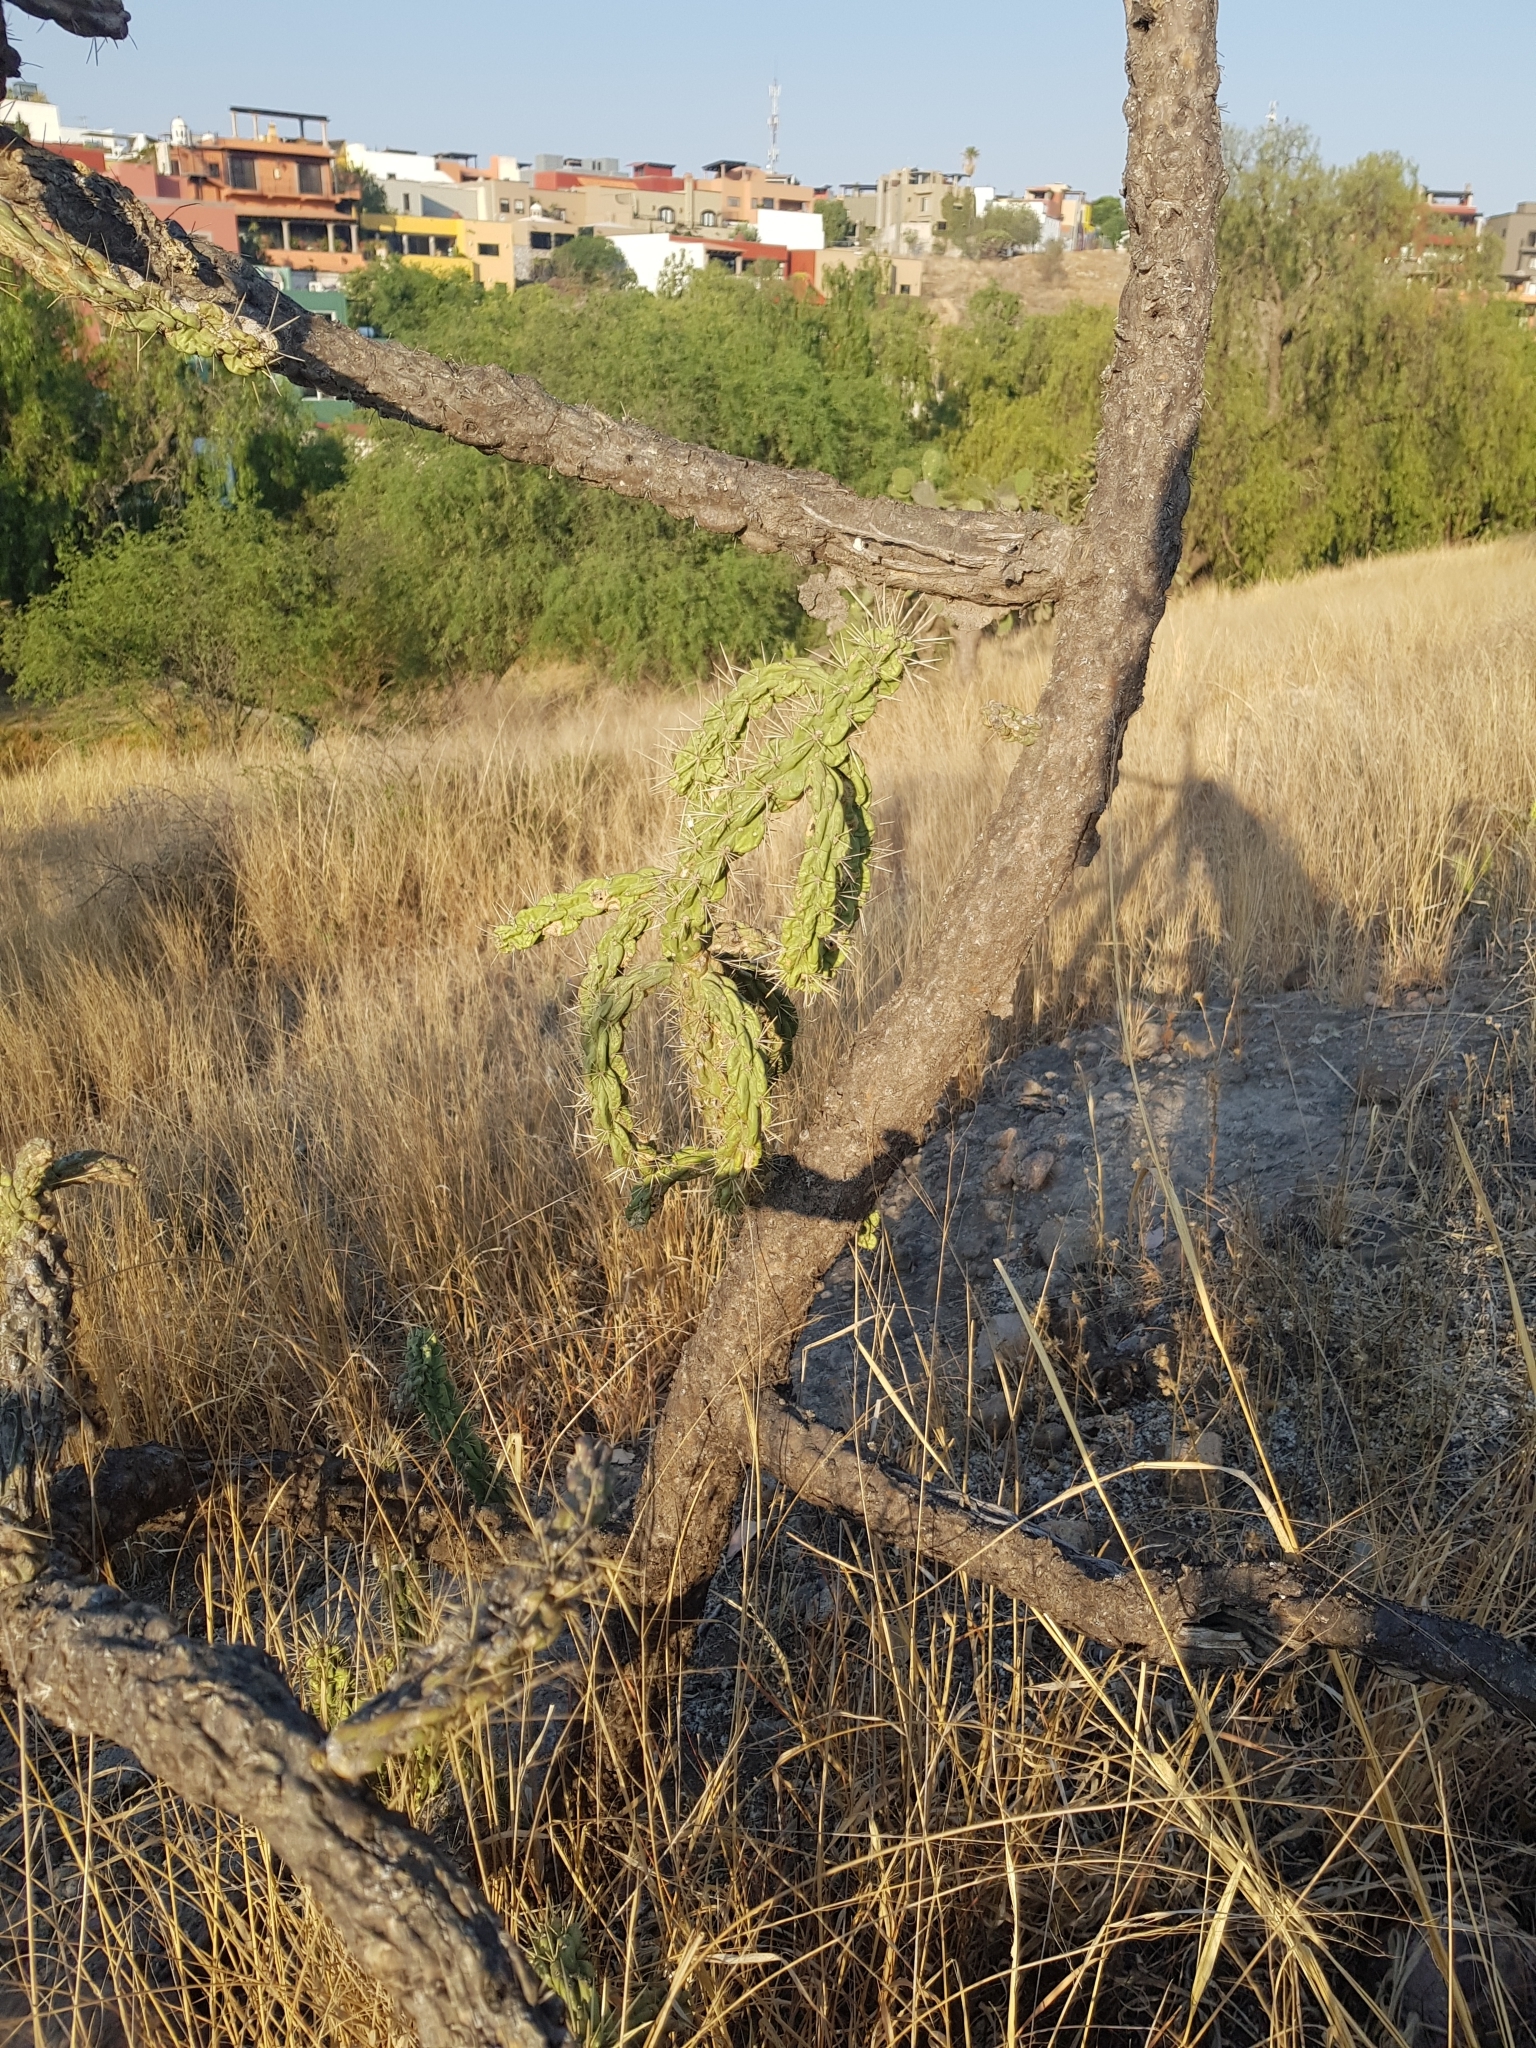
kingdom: Plantae
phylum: Tracheophyta
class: Magnoliopsida
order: Caryophyllales
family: Cactaceae
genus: Cylindropuntia
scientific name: Cylindropuntia imbricata
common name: Candelabrum cactus
